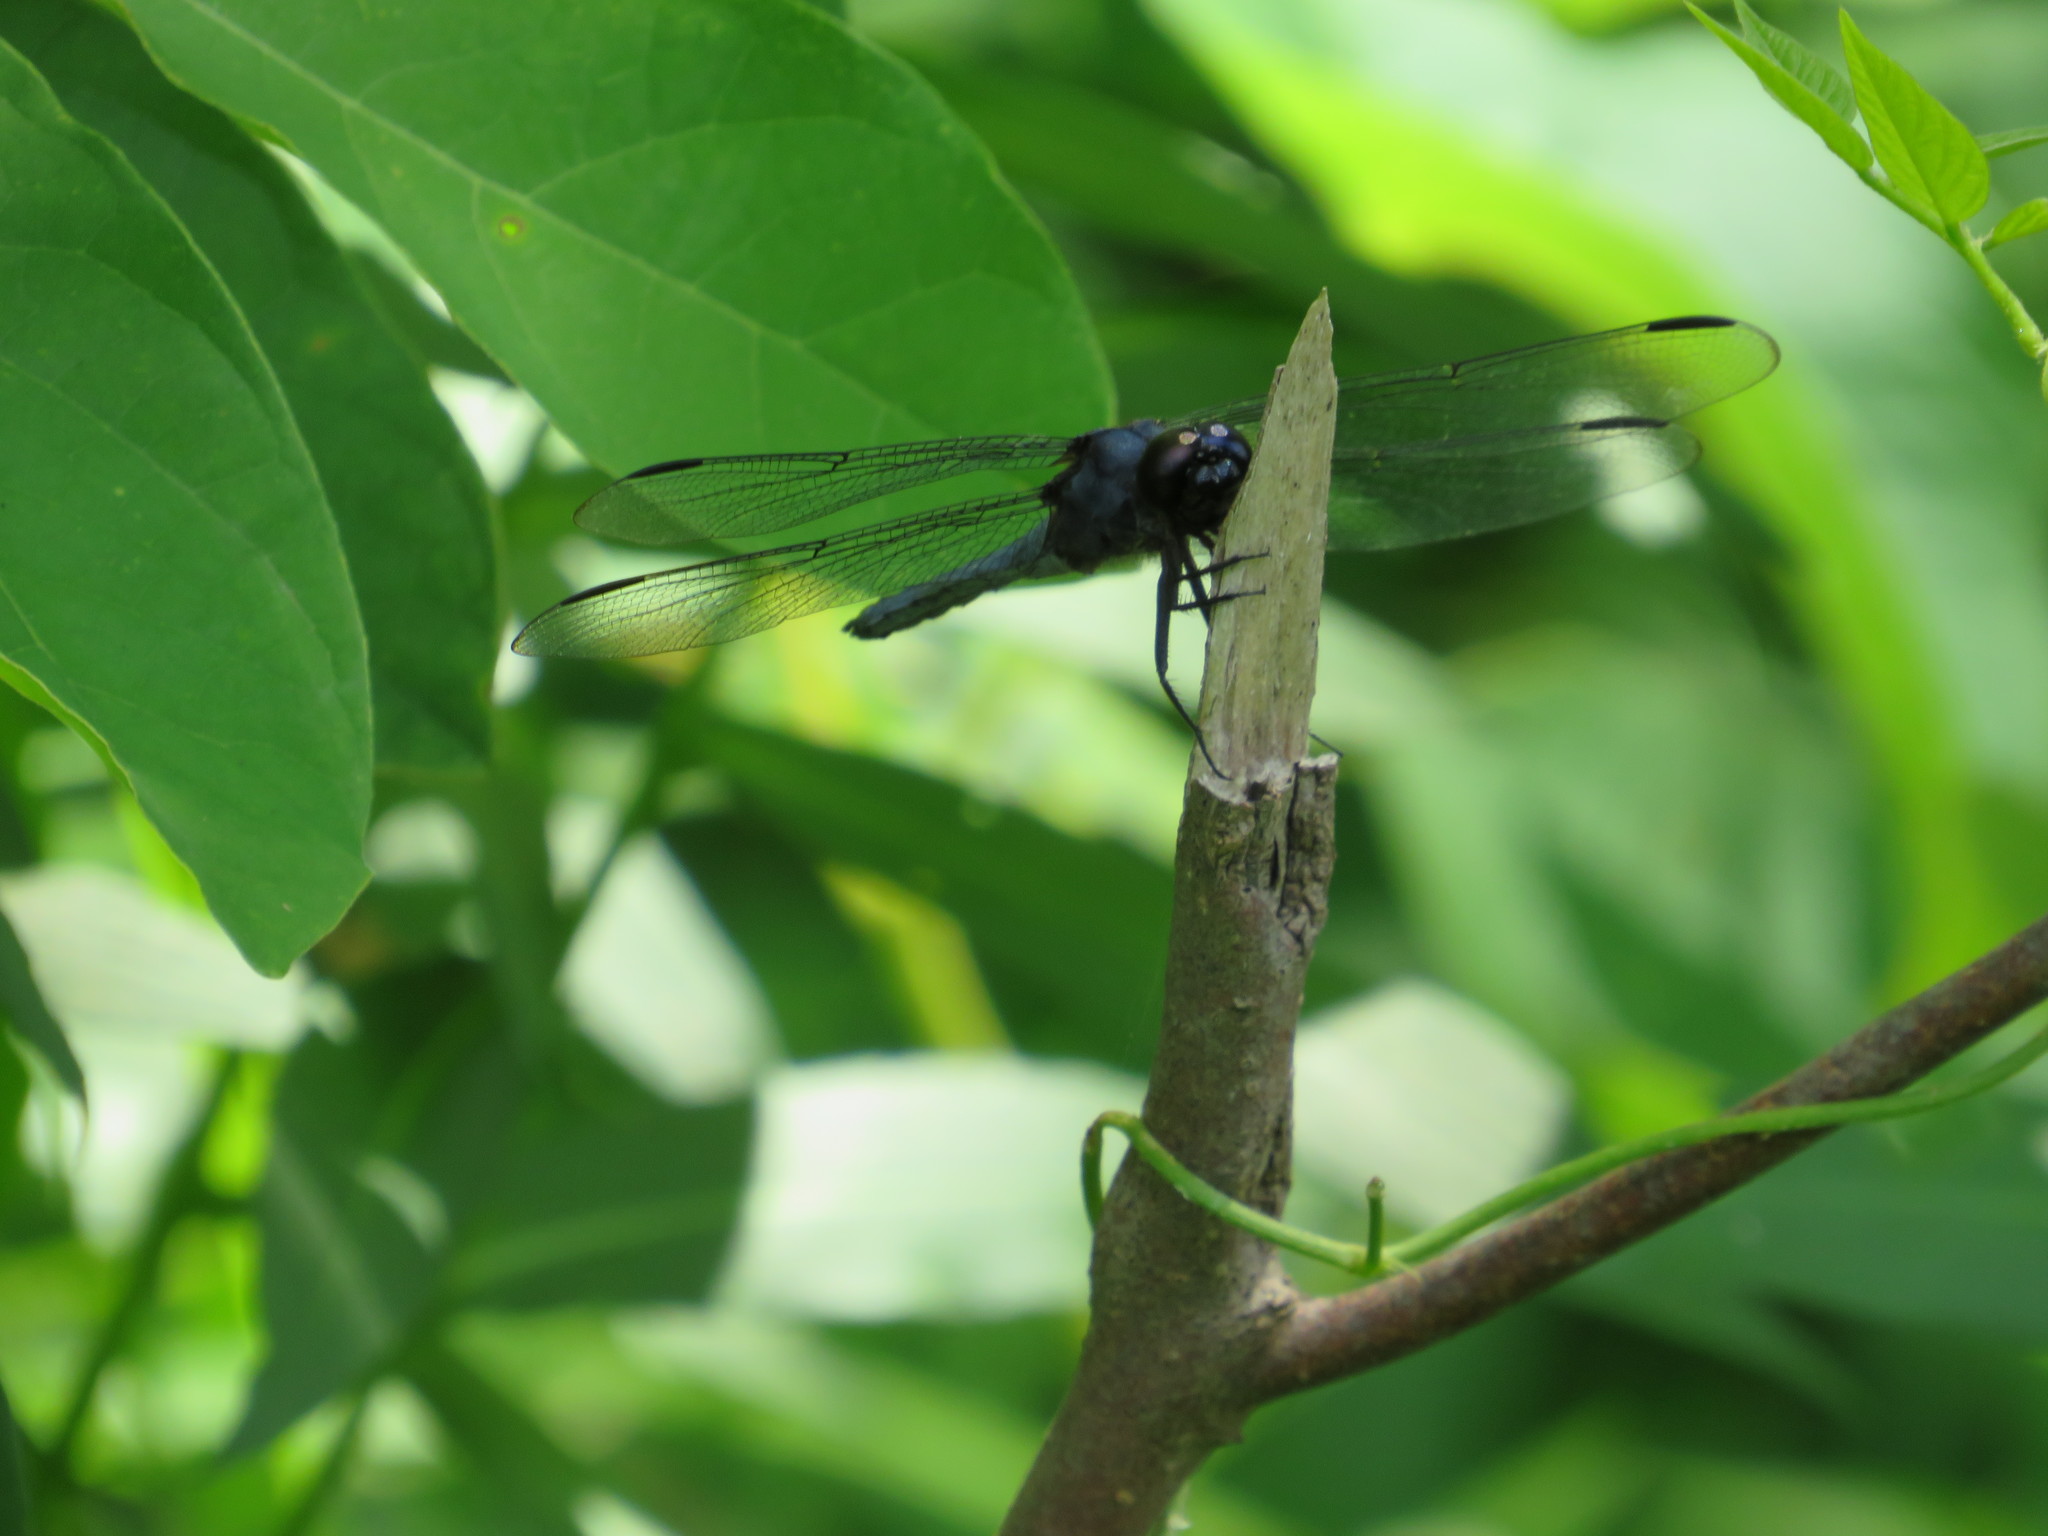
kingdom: Animalia
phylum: Arthropoda
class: Insecta
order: Odonata
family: Libellulidae
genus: Libellula
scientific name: Libellula incesta
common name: Slaty skimmer
